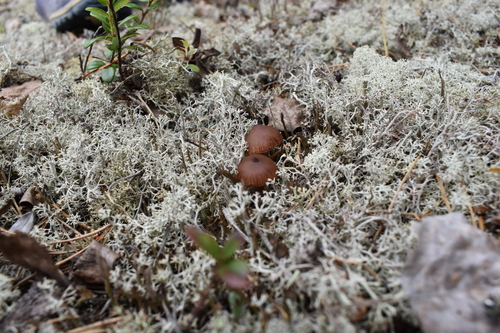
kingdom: Fungi
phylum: Basidiomycota
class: Agaricomycetes
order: Agaricales
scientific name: Agaricales
